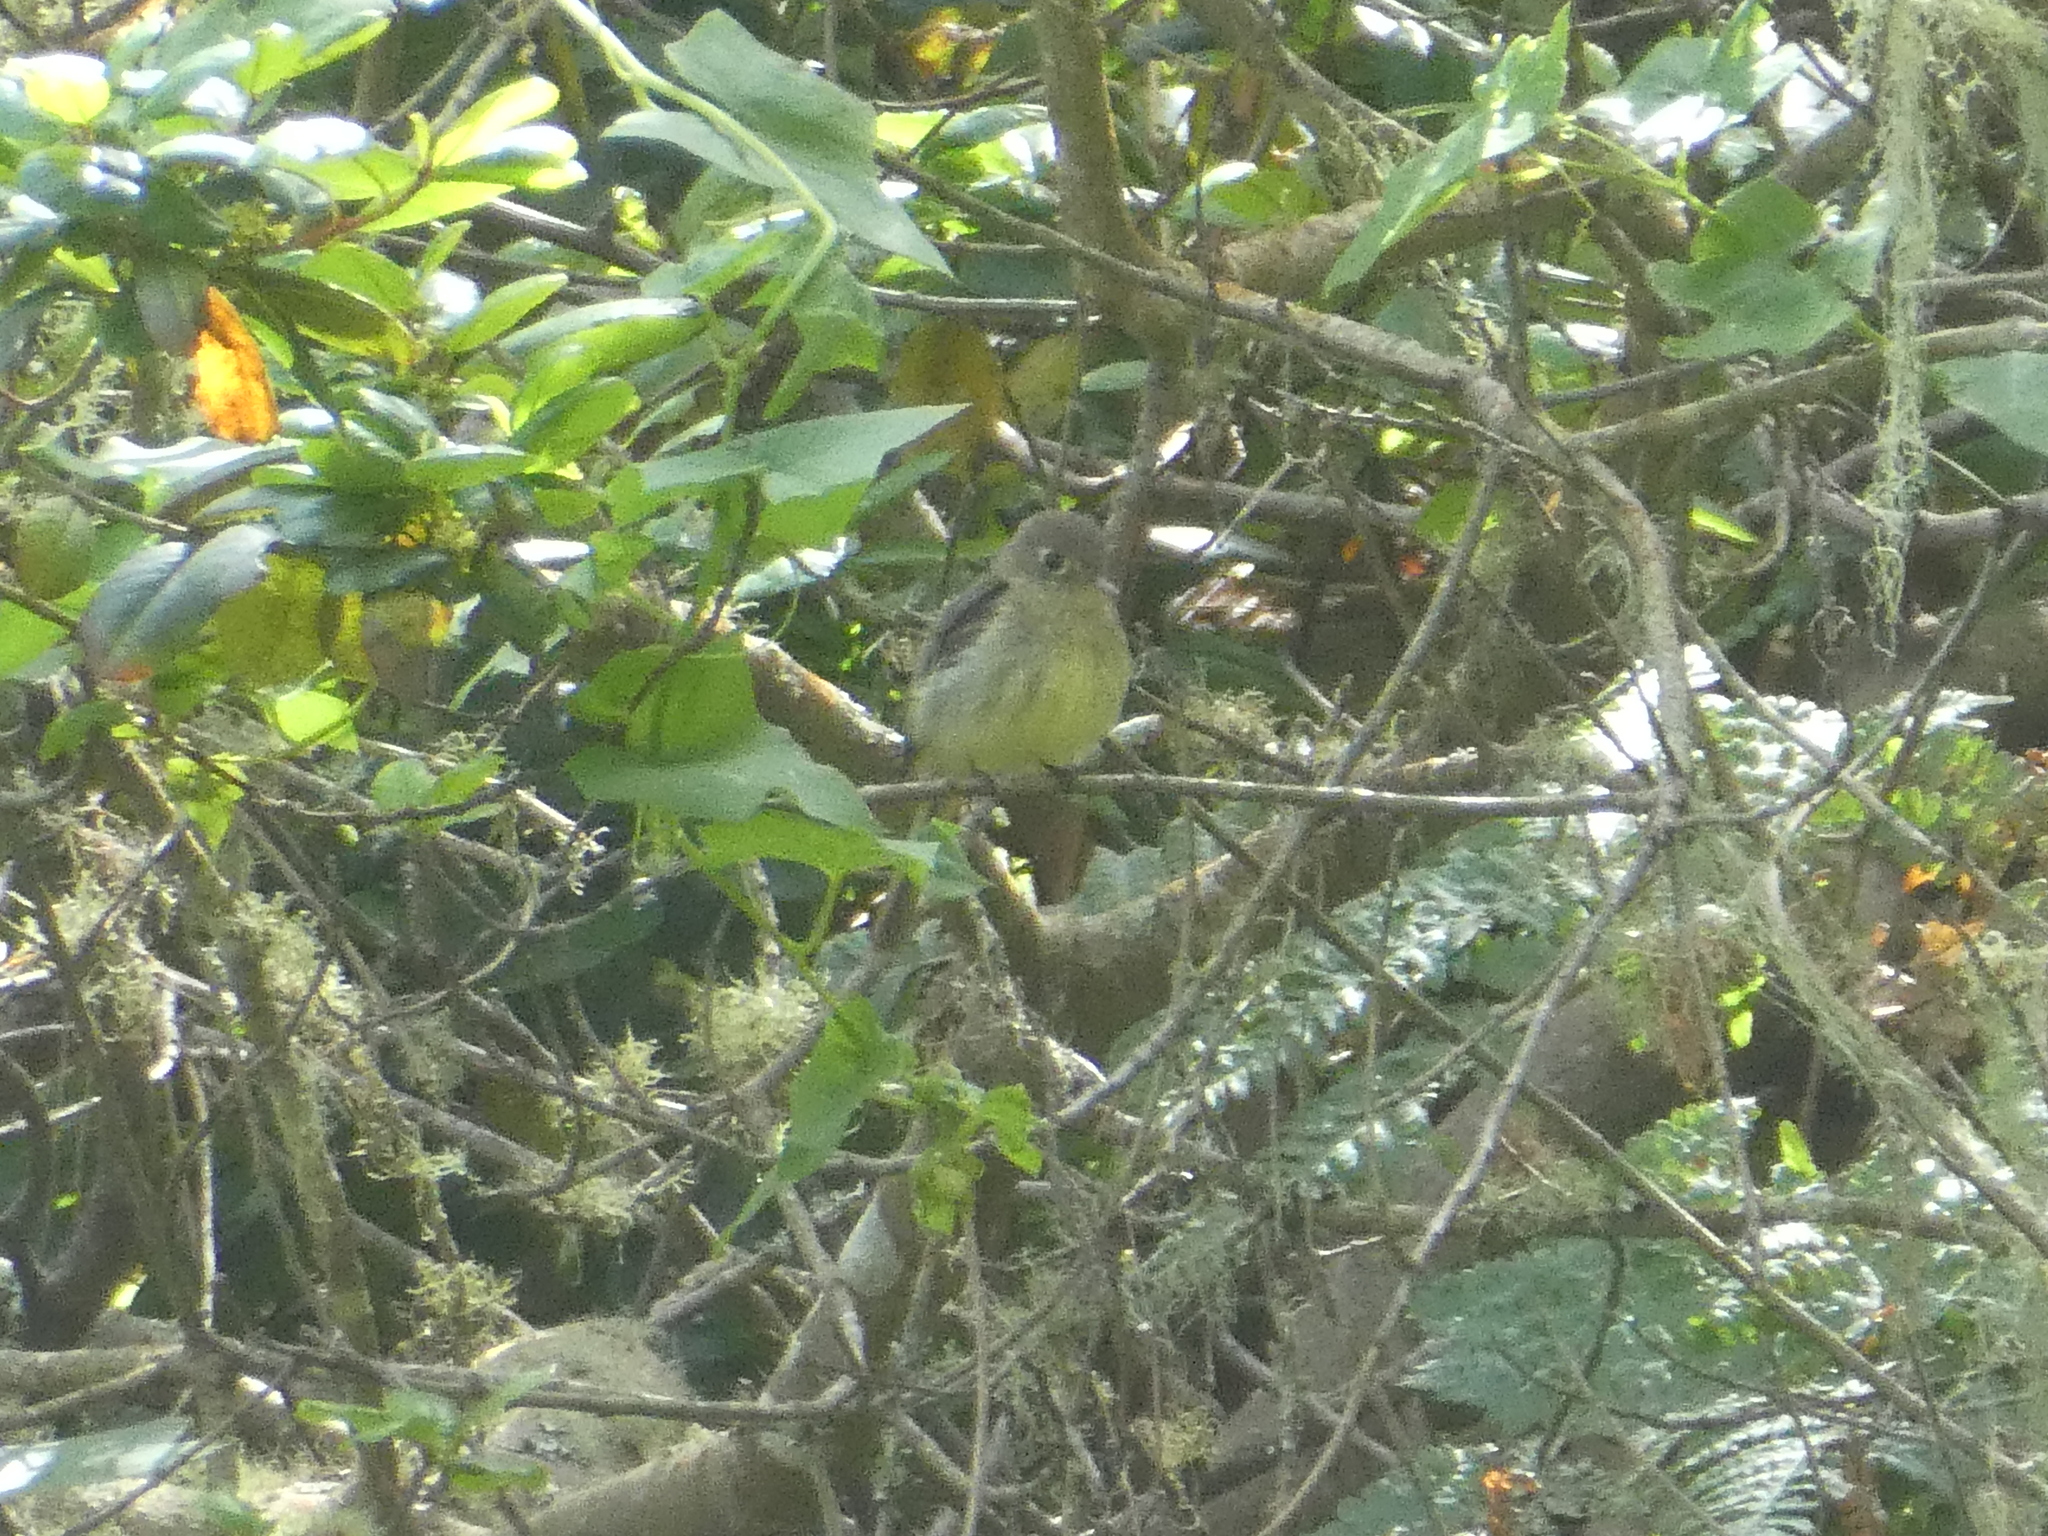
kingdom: Animalia
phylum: Chordata
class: Aves
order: Passeriformes
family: Tyrannidae
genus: Empidonax
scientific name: Empidonax difficilis
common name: Pacific-slope flycatcher
